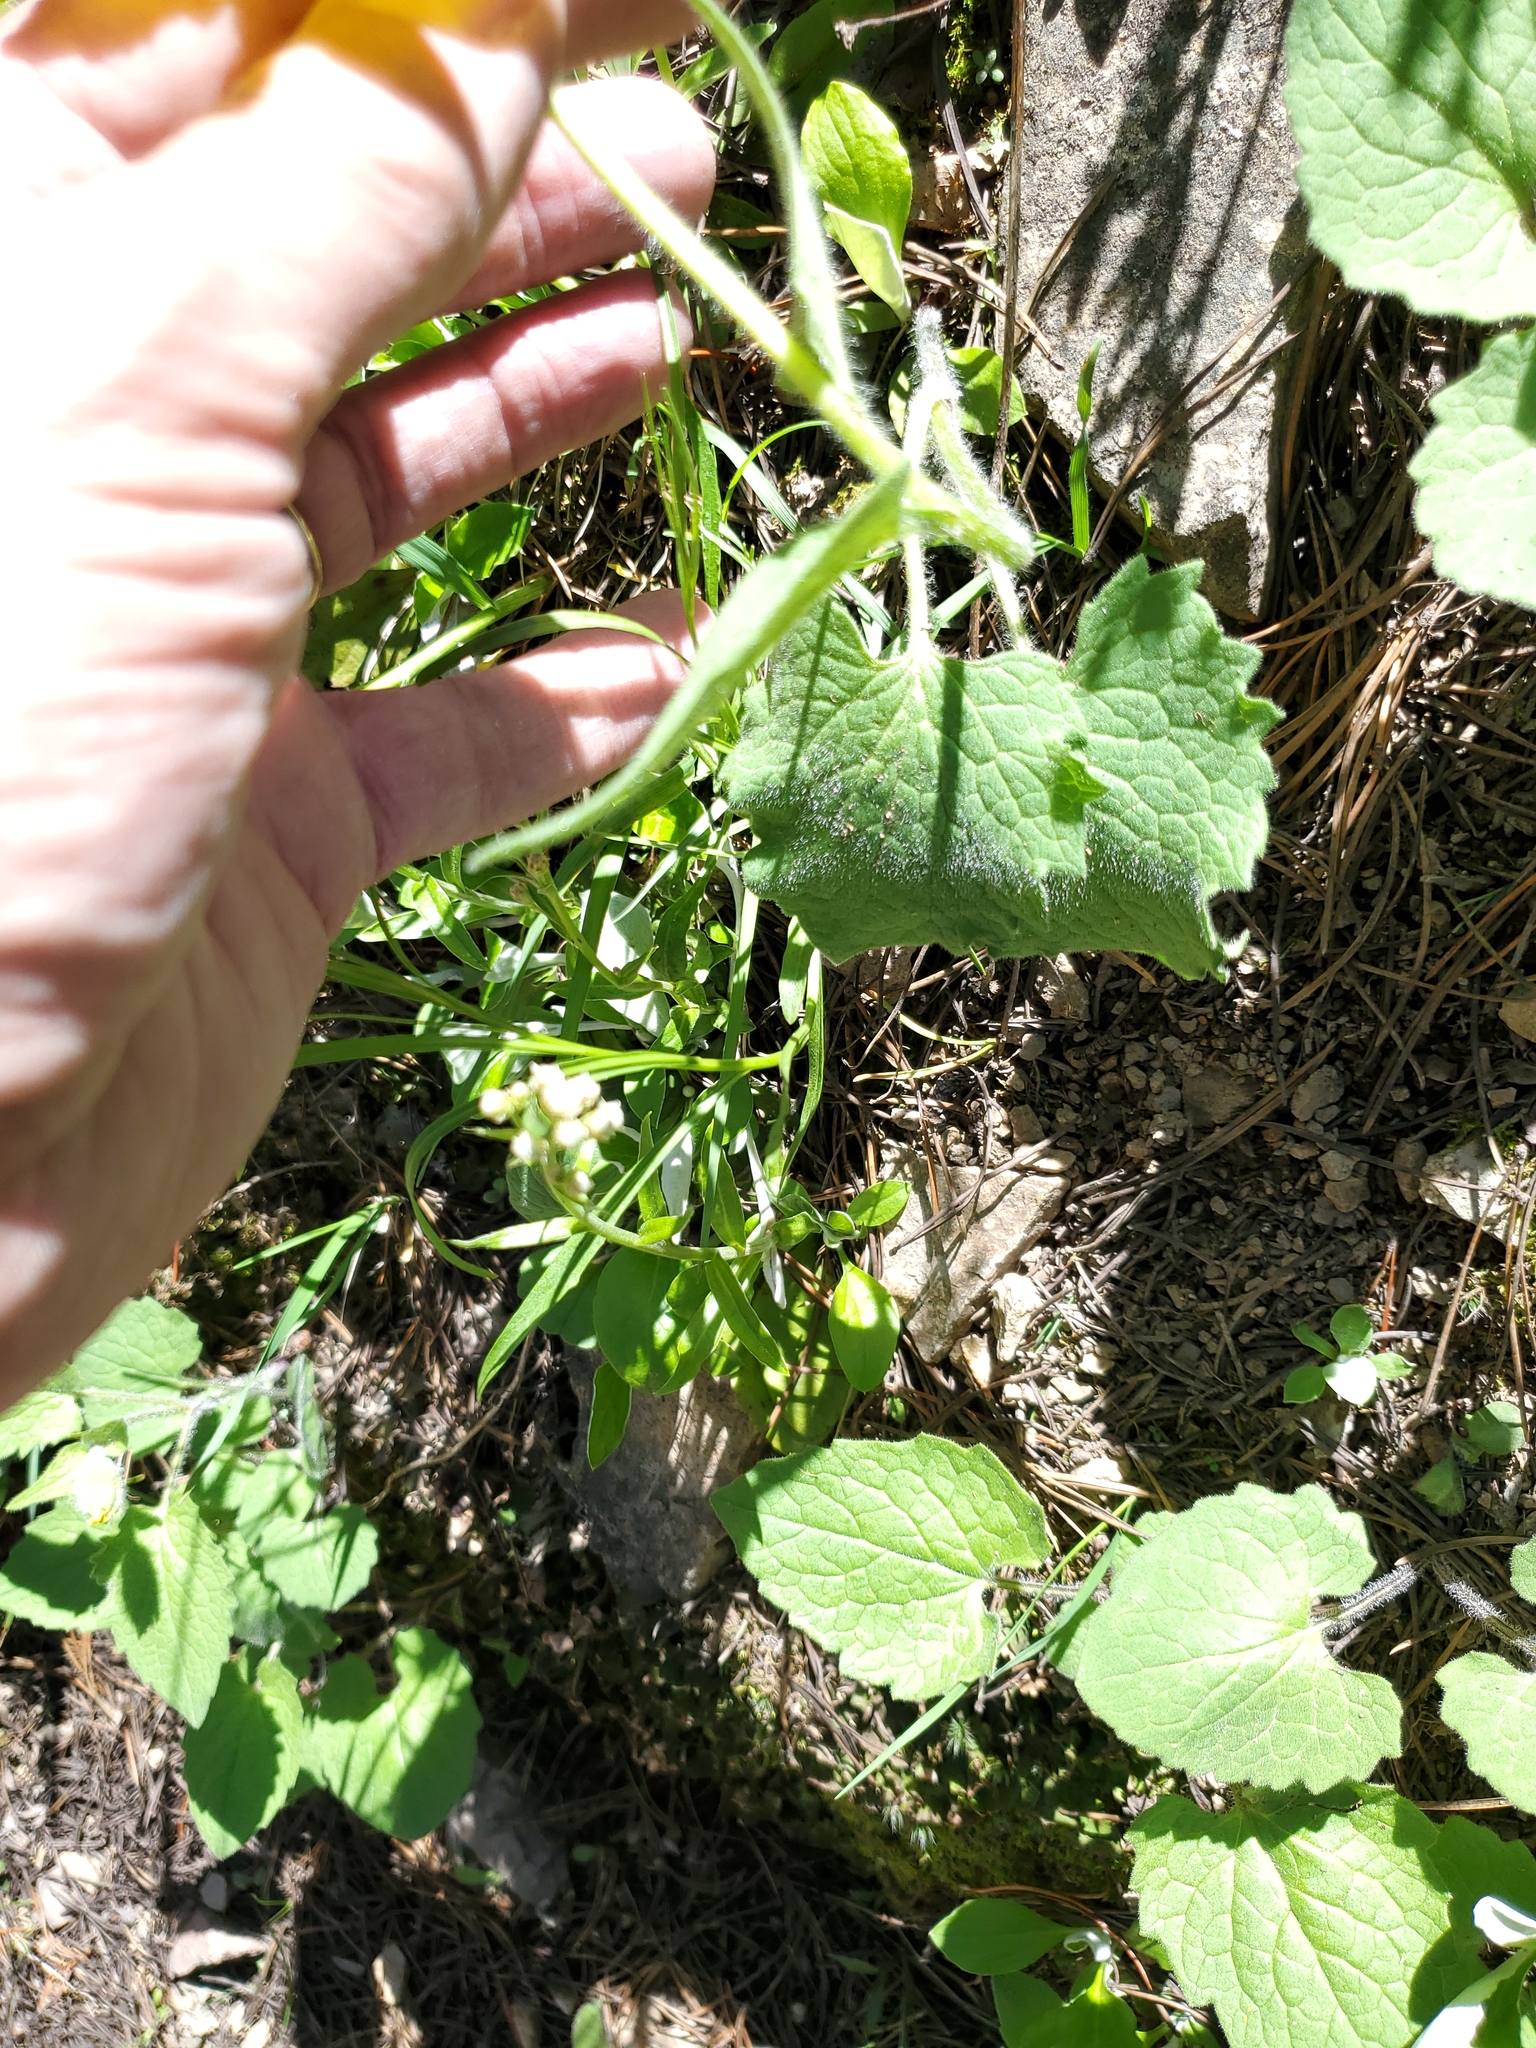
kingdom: Plantae
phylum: Tracheophyta
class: Magnoliopsida
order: Asterales
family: Asteraceae
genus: Antennaria
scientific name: Antennaria racemosa
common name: Racemose pussytoes
